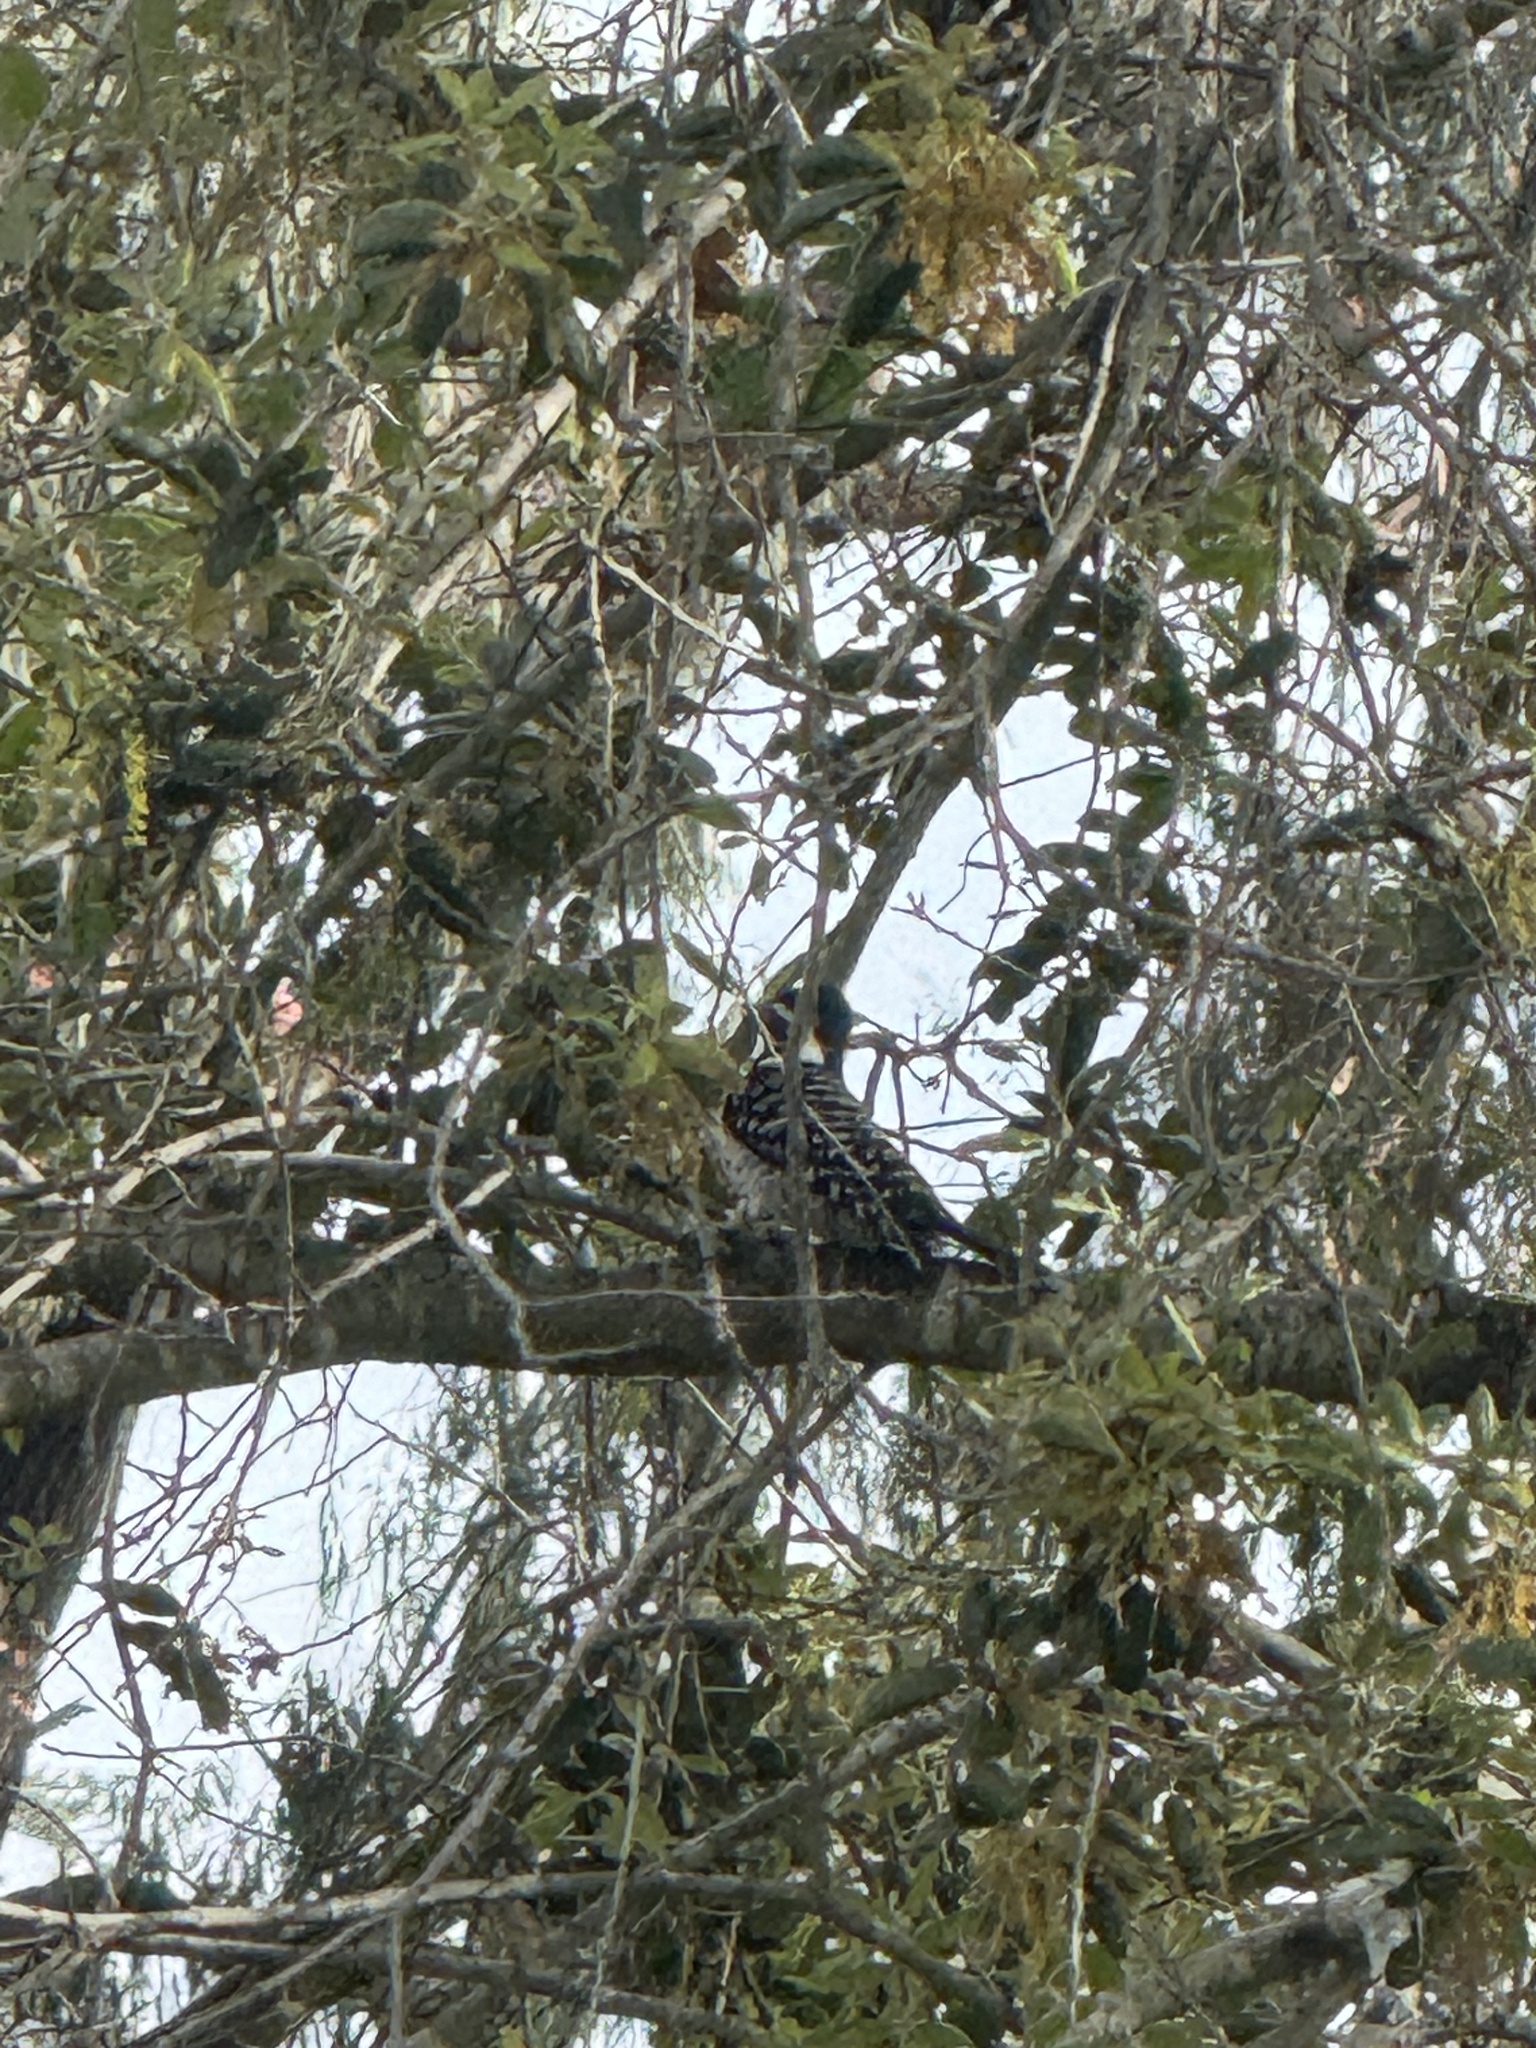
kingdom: Animalia
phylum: Chordata
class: Aves
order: Piciformes
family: Picidae
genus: Dryobates
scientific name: Dryobates nuttallii
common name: Nuttall's woodpecker
